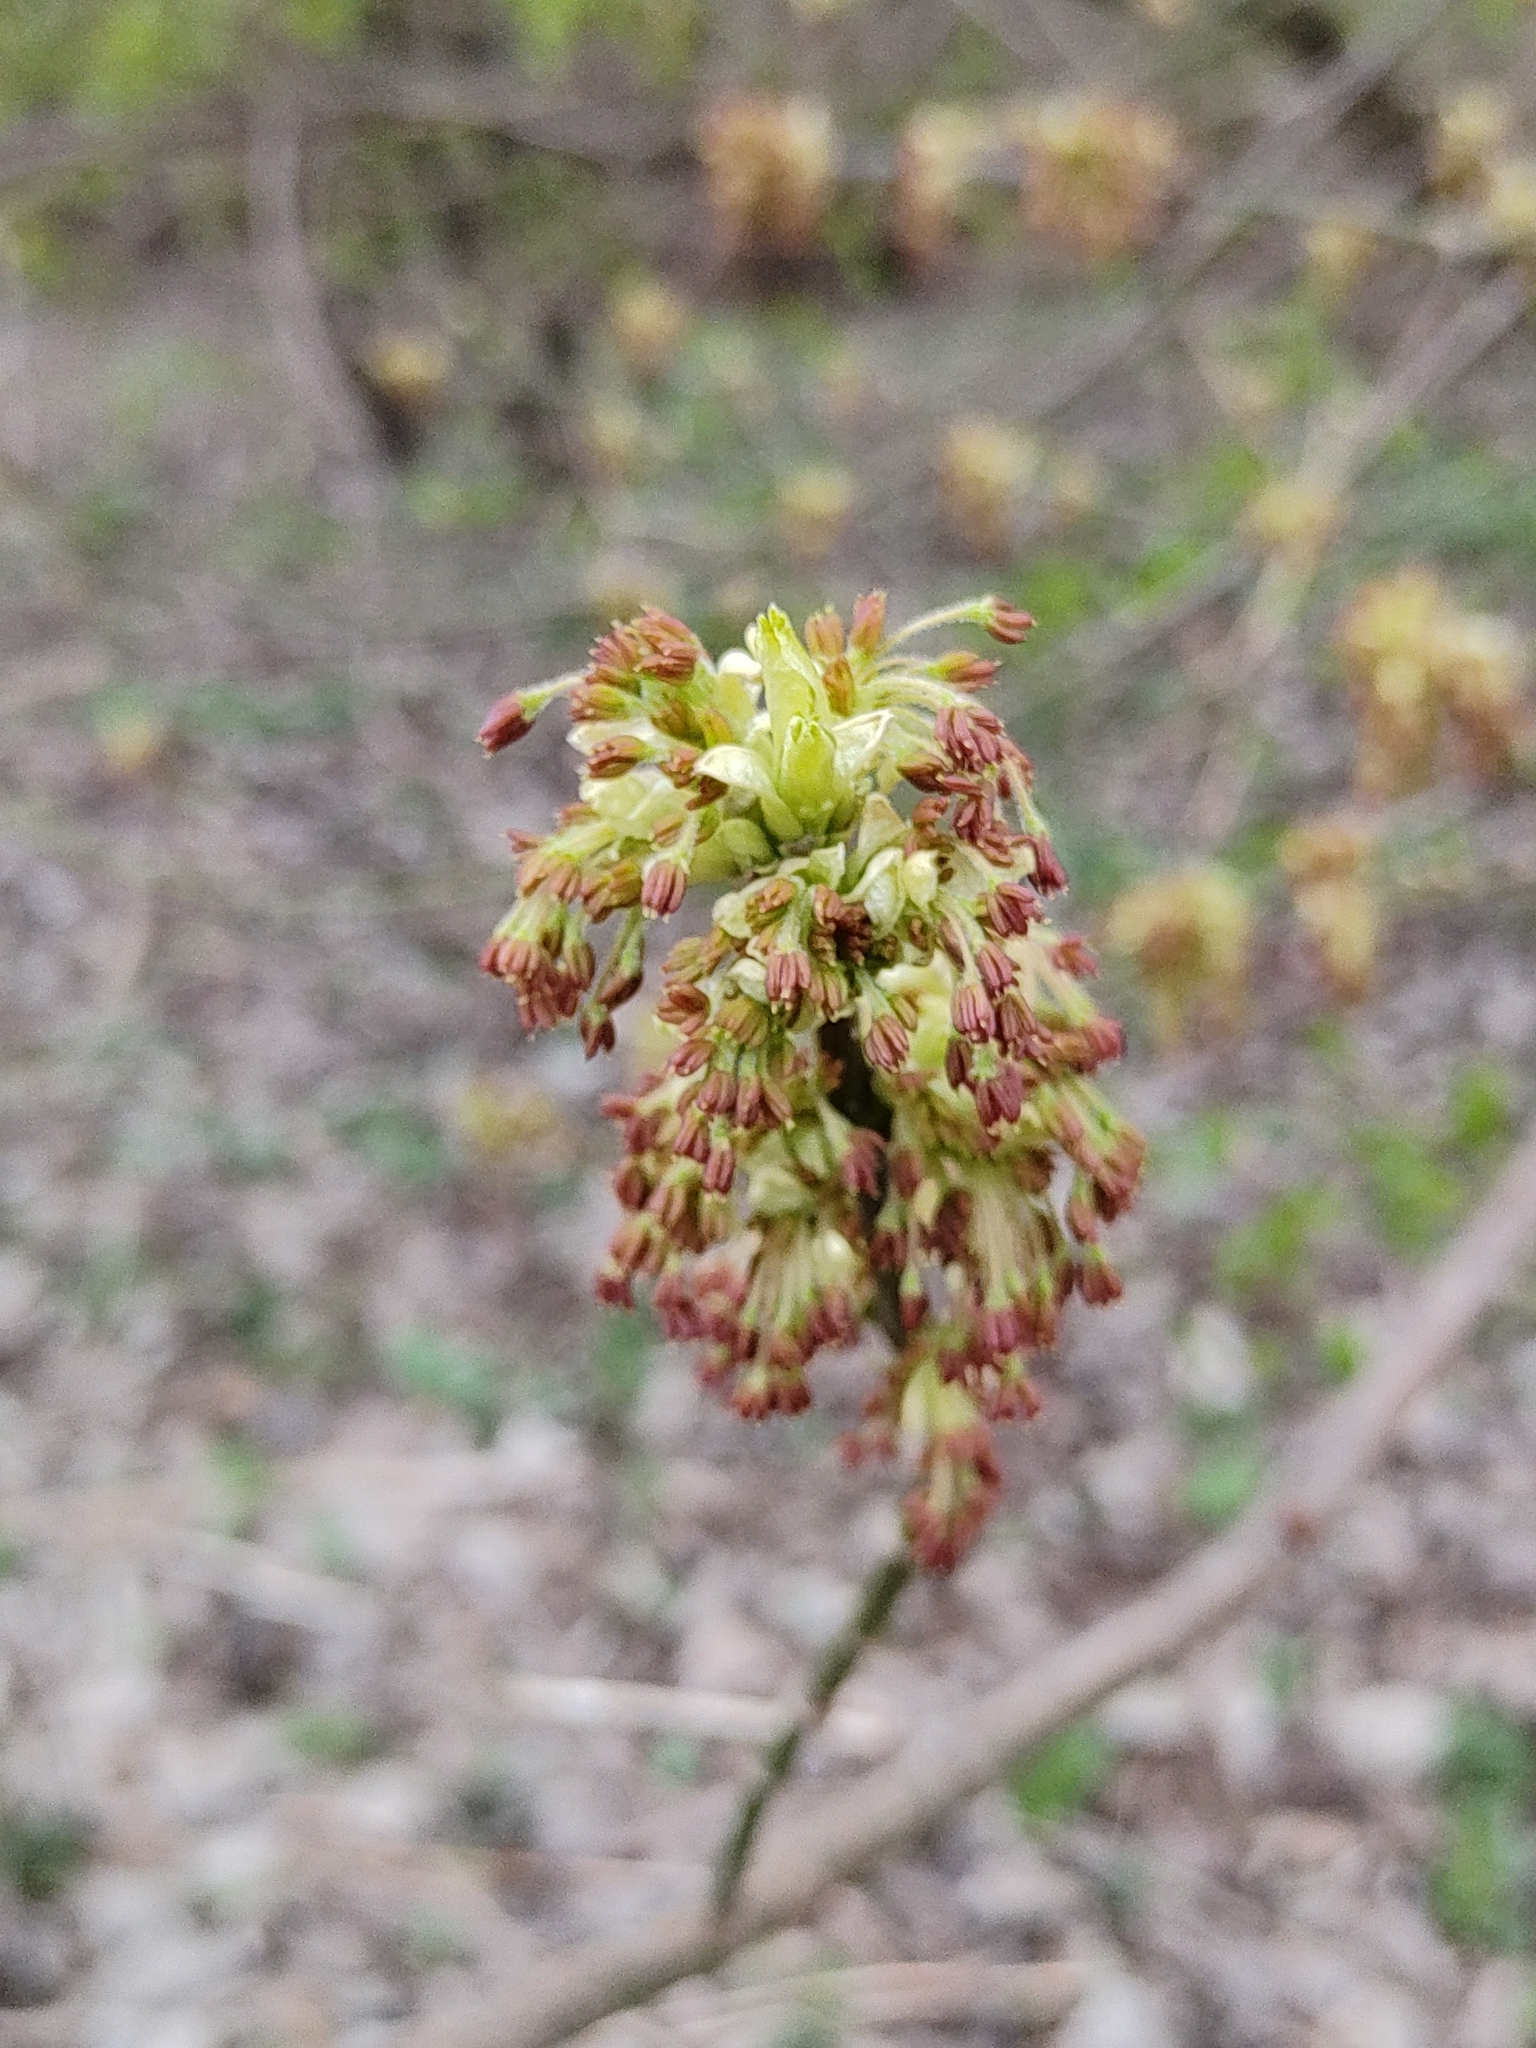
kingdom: Plantae
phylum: Tracheophyta
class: Magnoliopsida
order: Sapindales
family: Sapindaceae
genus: Acer
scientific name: Acer negundo
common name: Ashleaf maple
